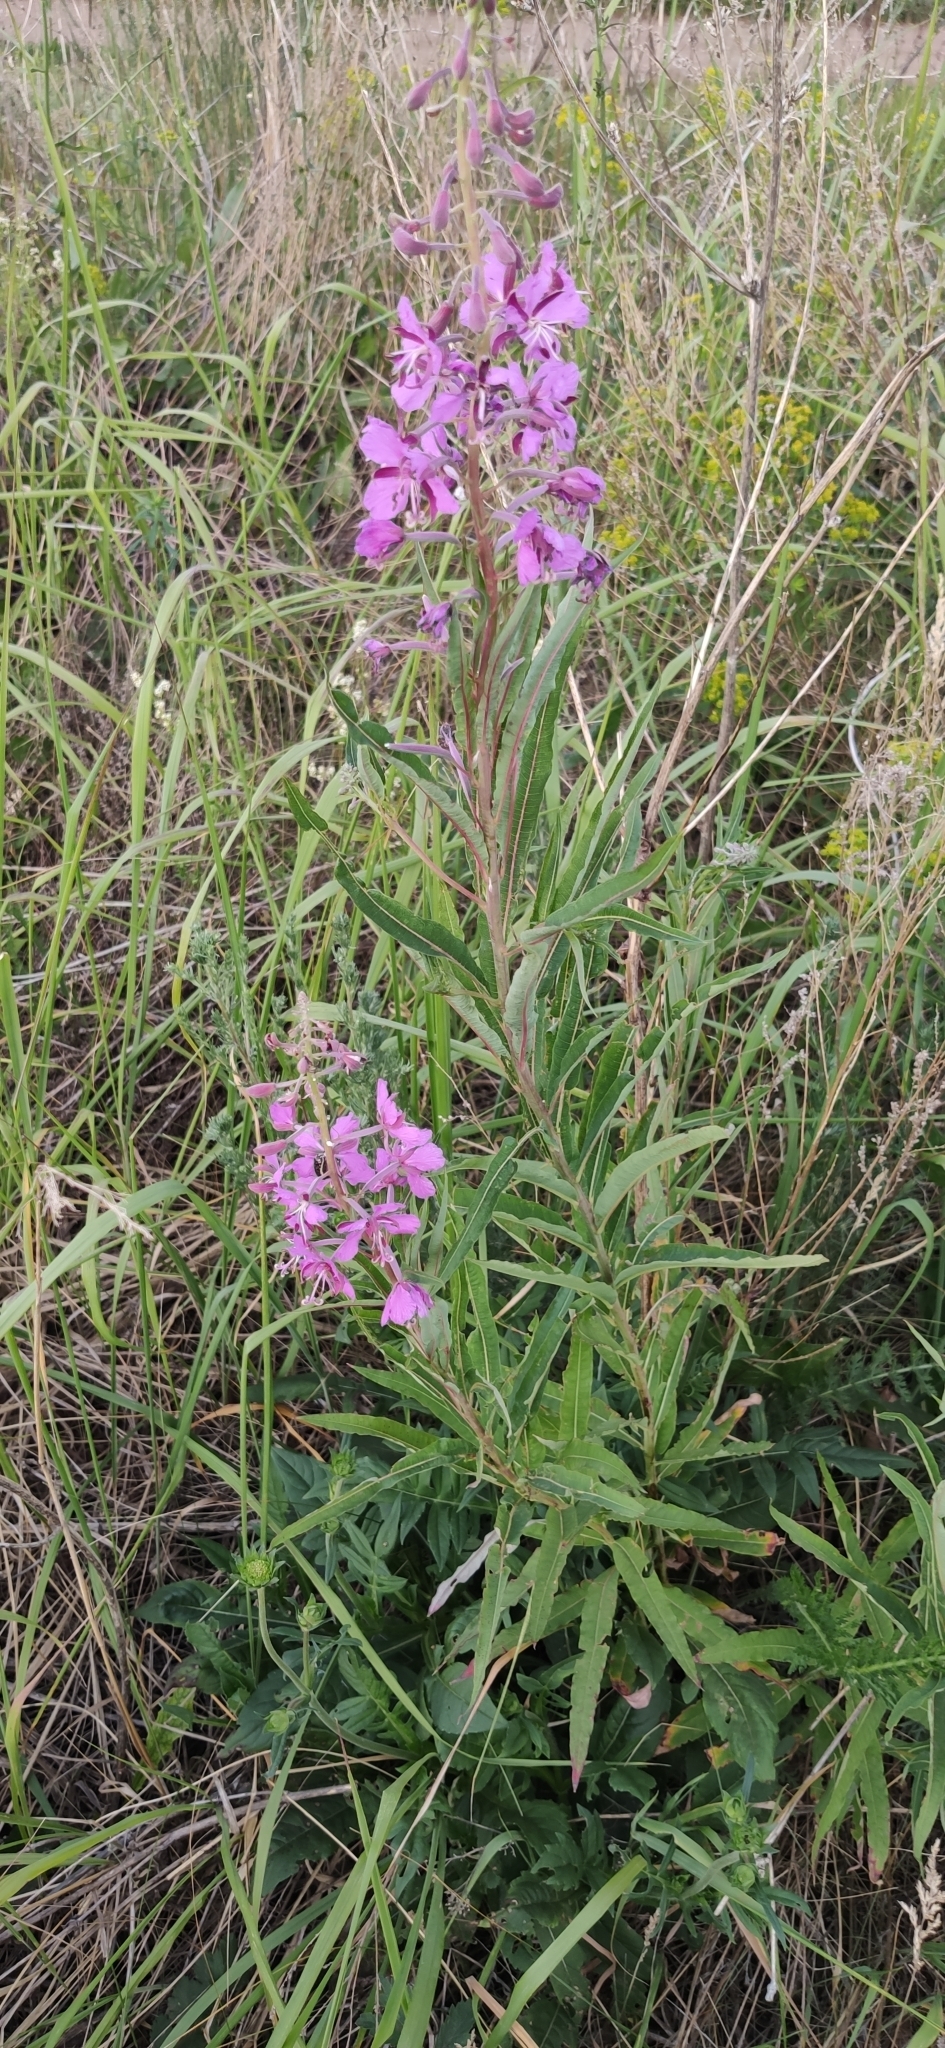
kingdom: Plantae
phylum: Tracheophyta
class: Magnoliopsida
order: Myrtales
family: Onagraceae
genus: Chamaenerion
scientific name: Chamaenerion angustifolium
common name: Fireweed
